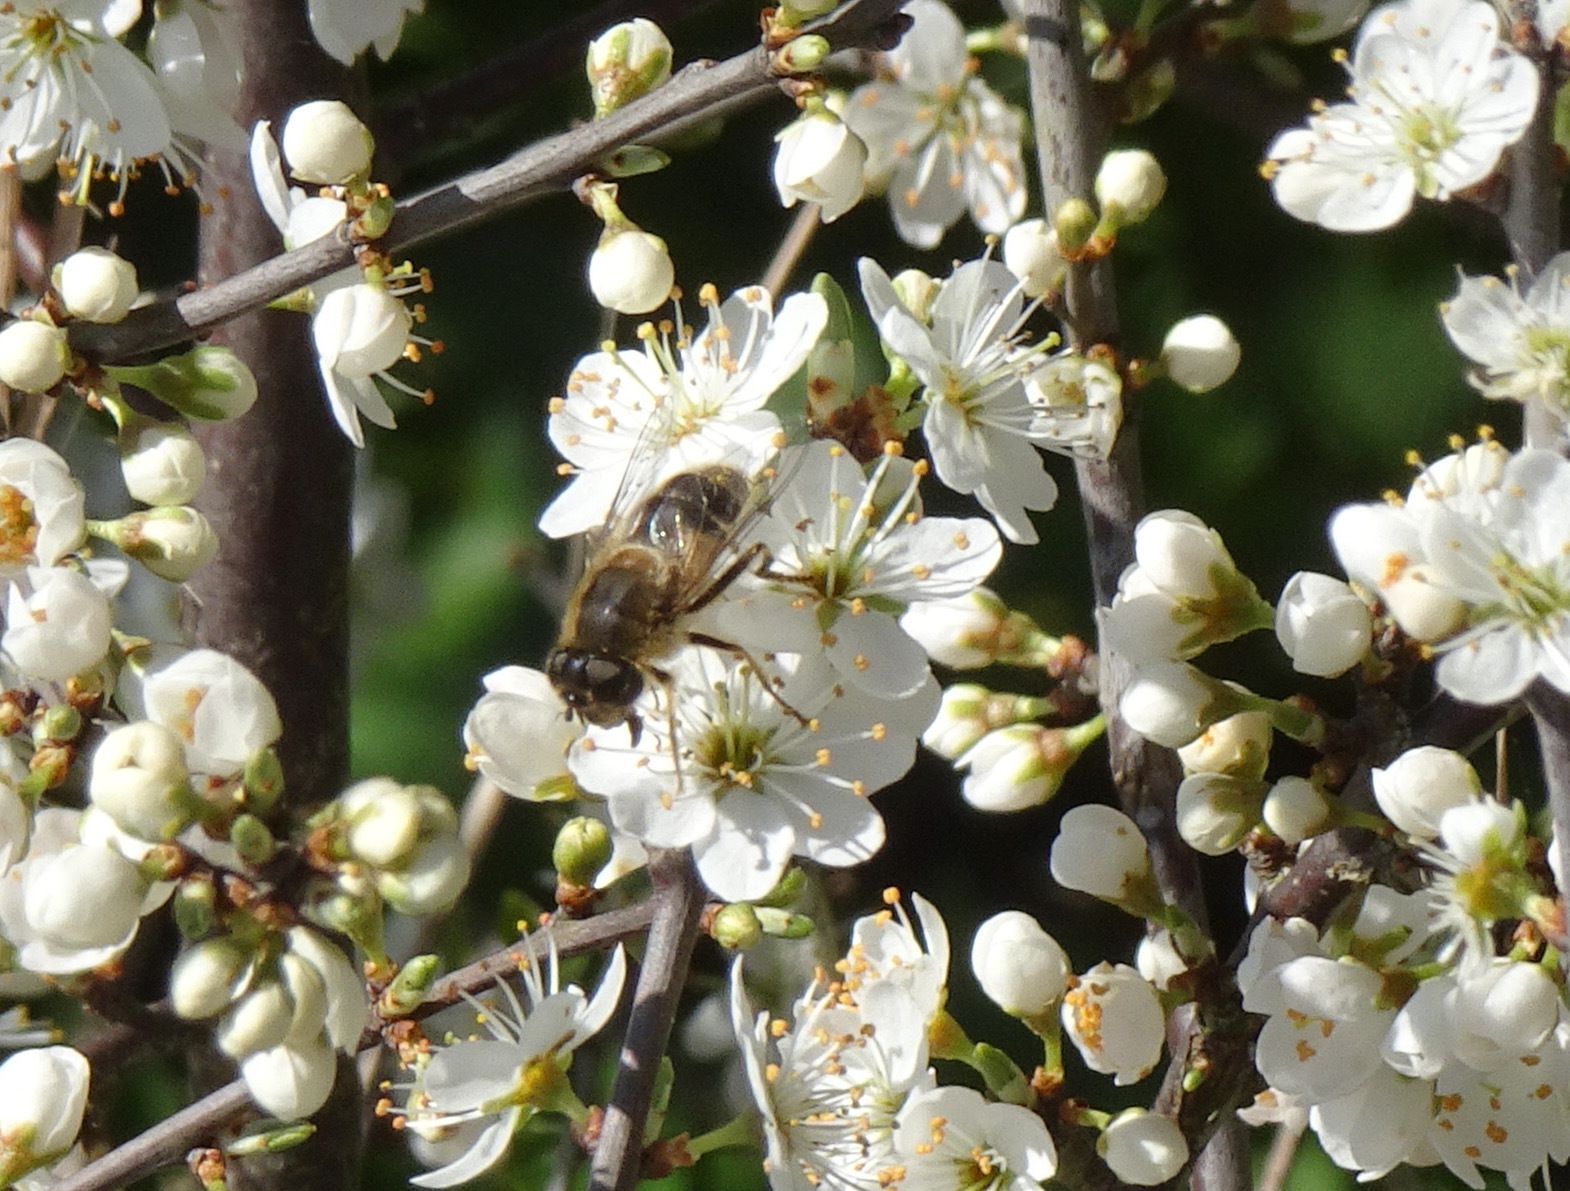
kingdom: Animalia
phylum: Arthropoda
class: Insecta
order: Diptera
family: Syrphidae
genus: Eristalis
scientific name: Eristalis pertinax
